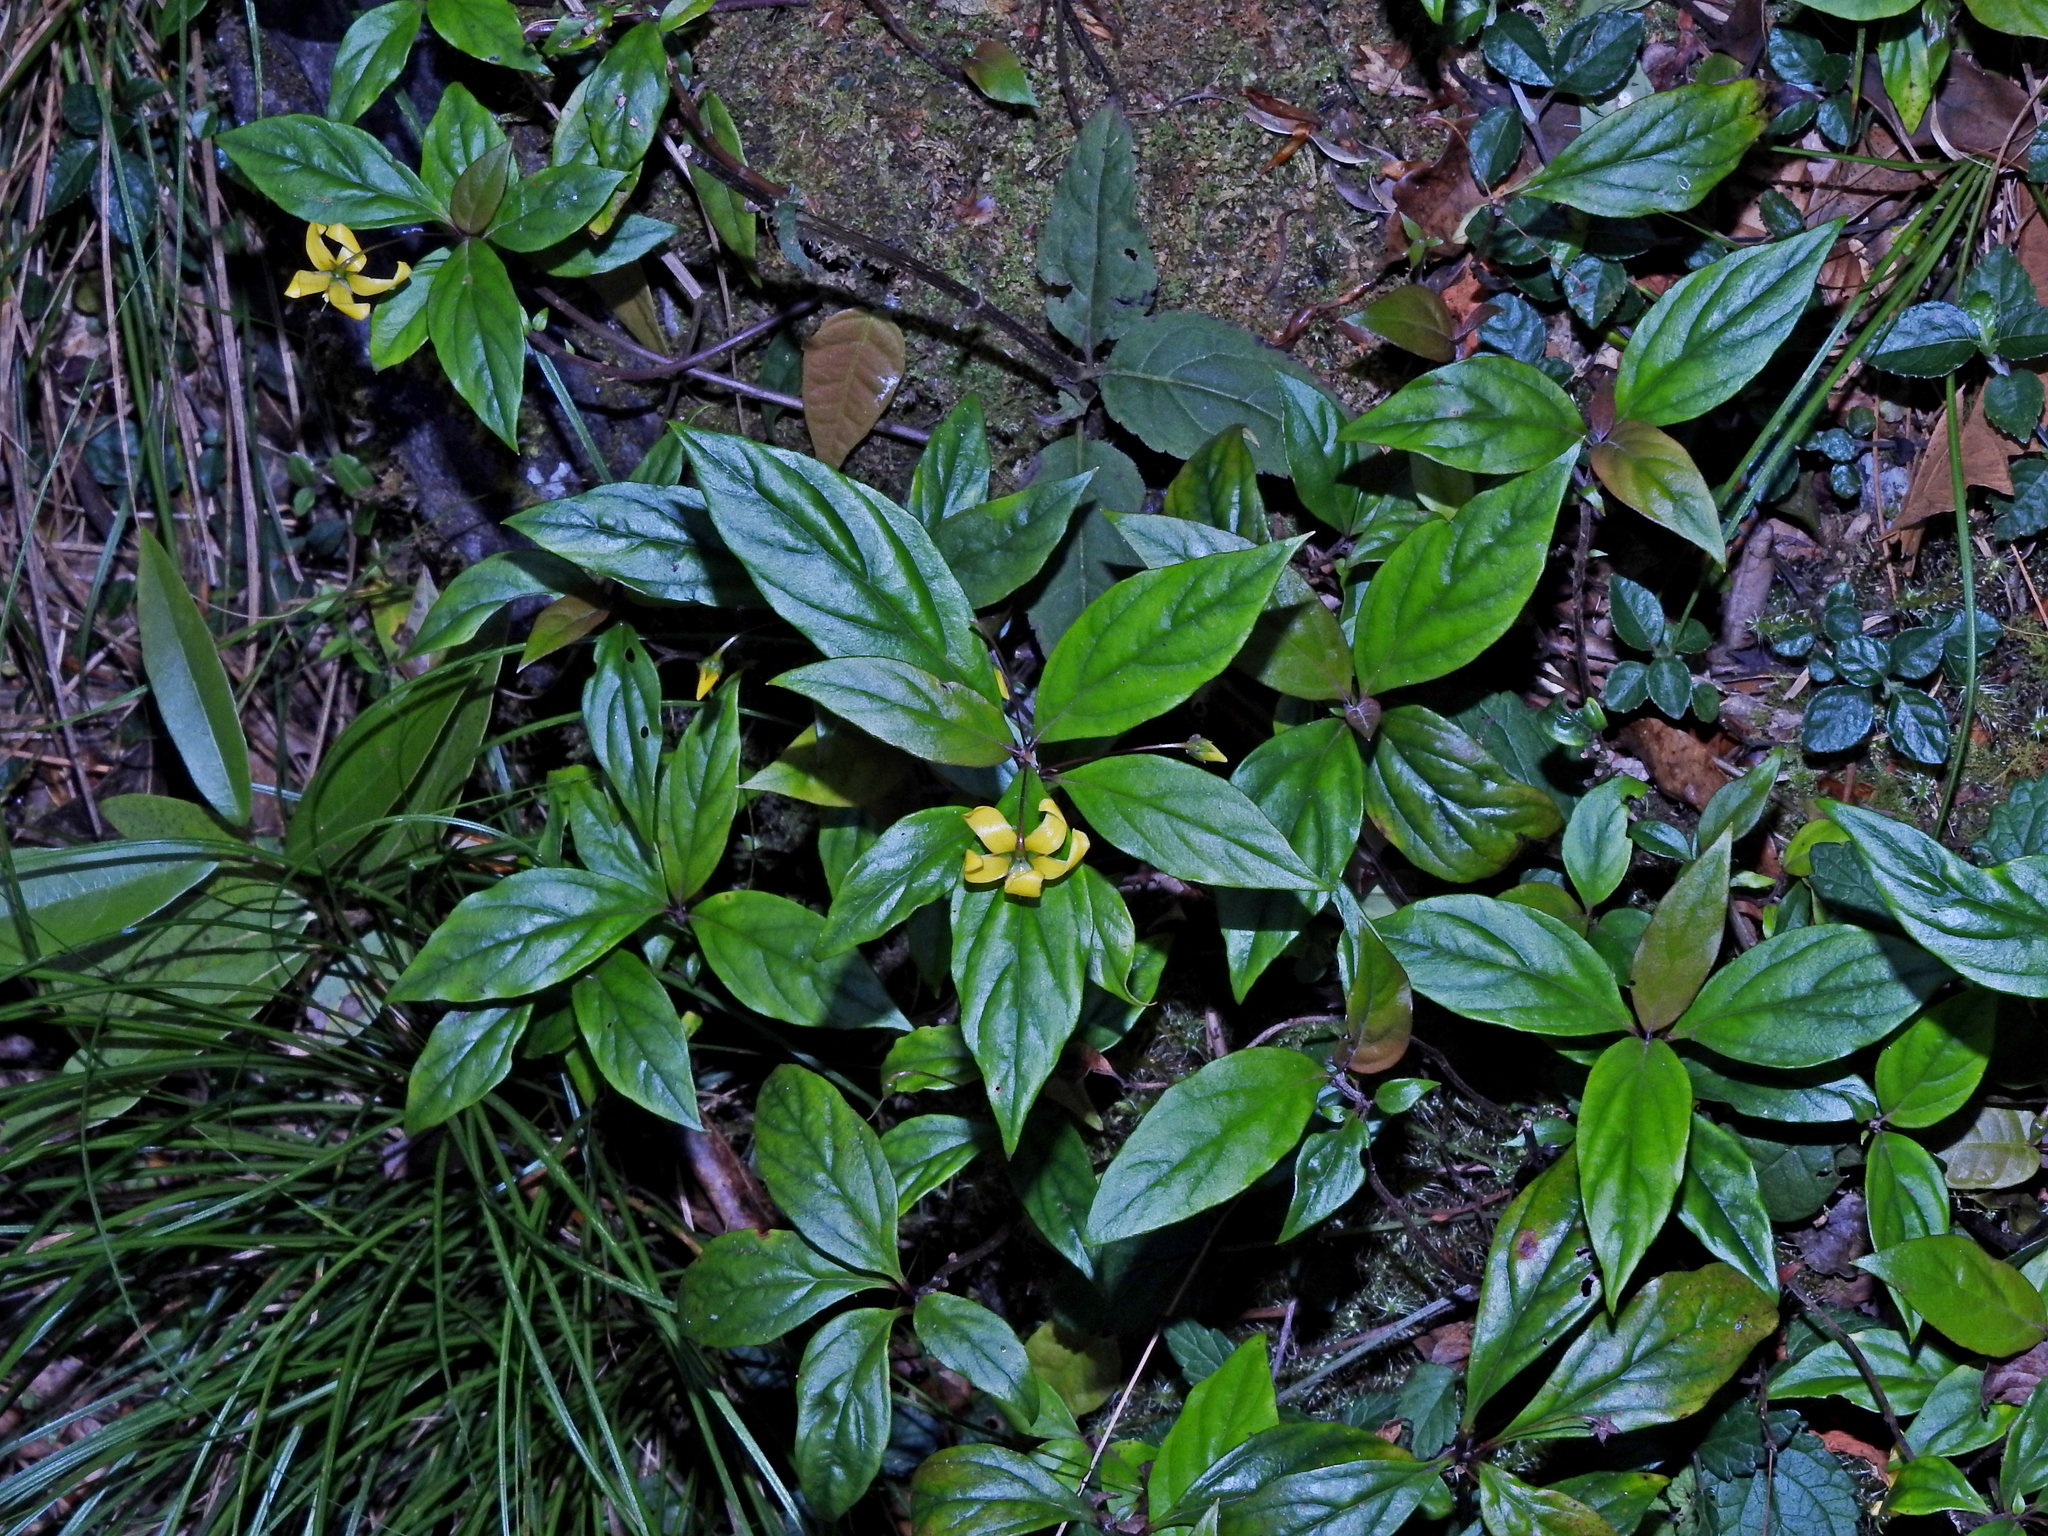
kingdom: Plantae
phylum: Tracheophyta
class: Magnoliopsida
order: Ericales
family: Primulaceae
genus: Lysimachia
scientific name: Lysimachia ardisioides
